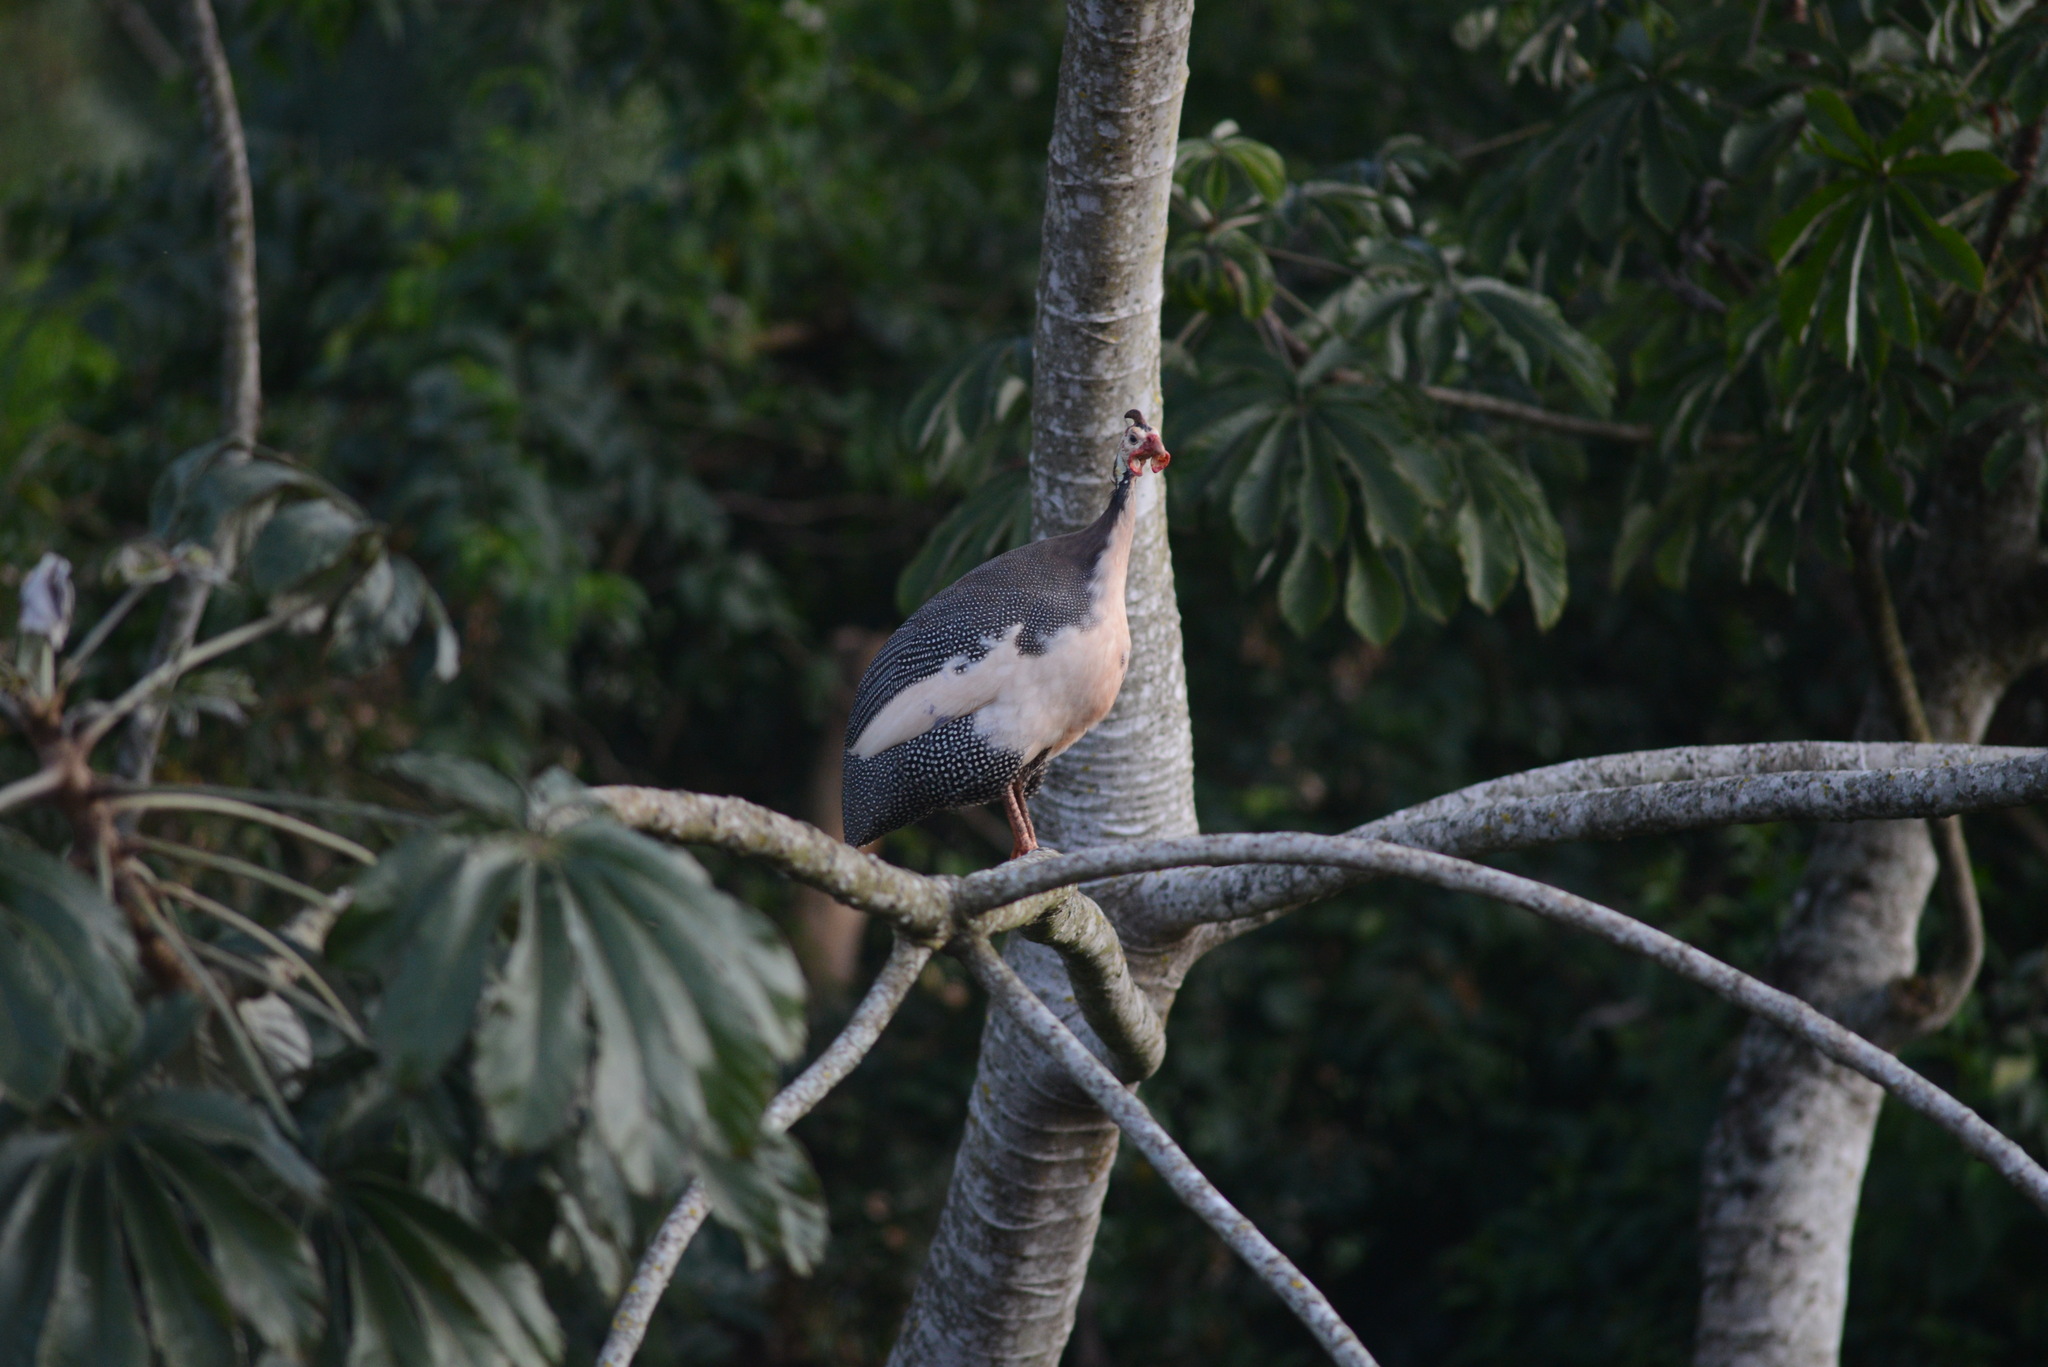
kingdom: Animalia
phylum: Chordata
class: Aves
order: Galliformes
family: Numididae
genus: Numida
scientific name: Numida meleagris
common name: Helmeted guineafowl
